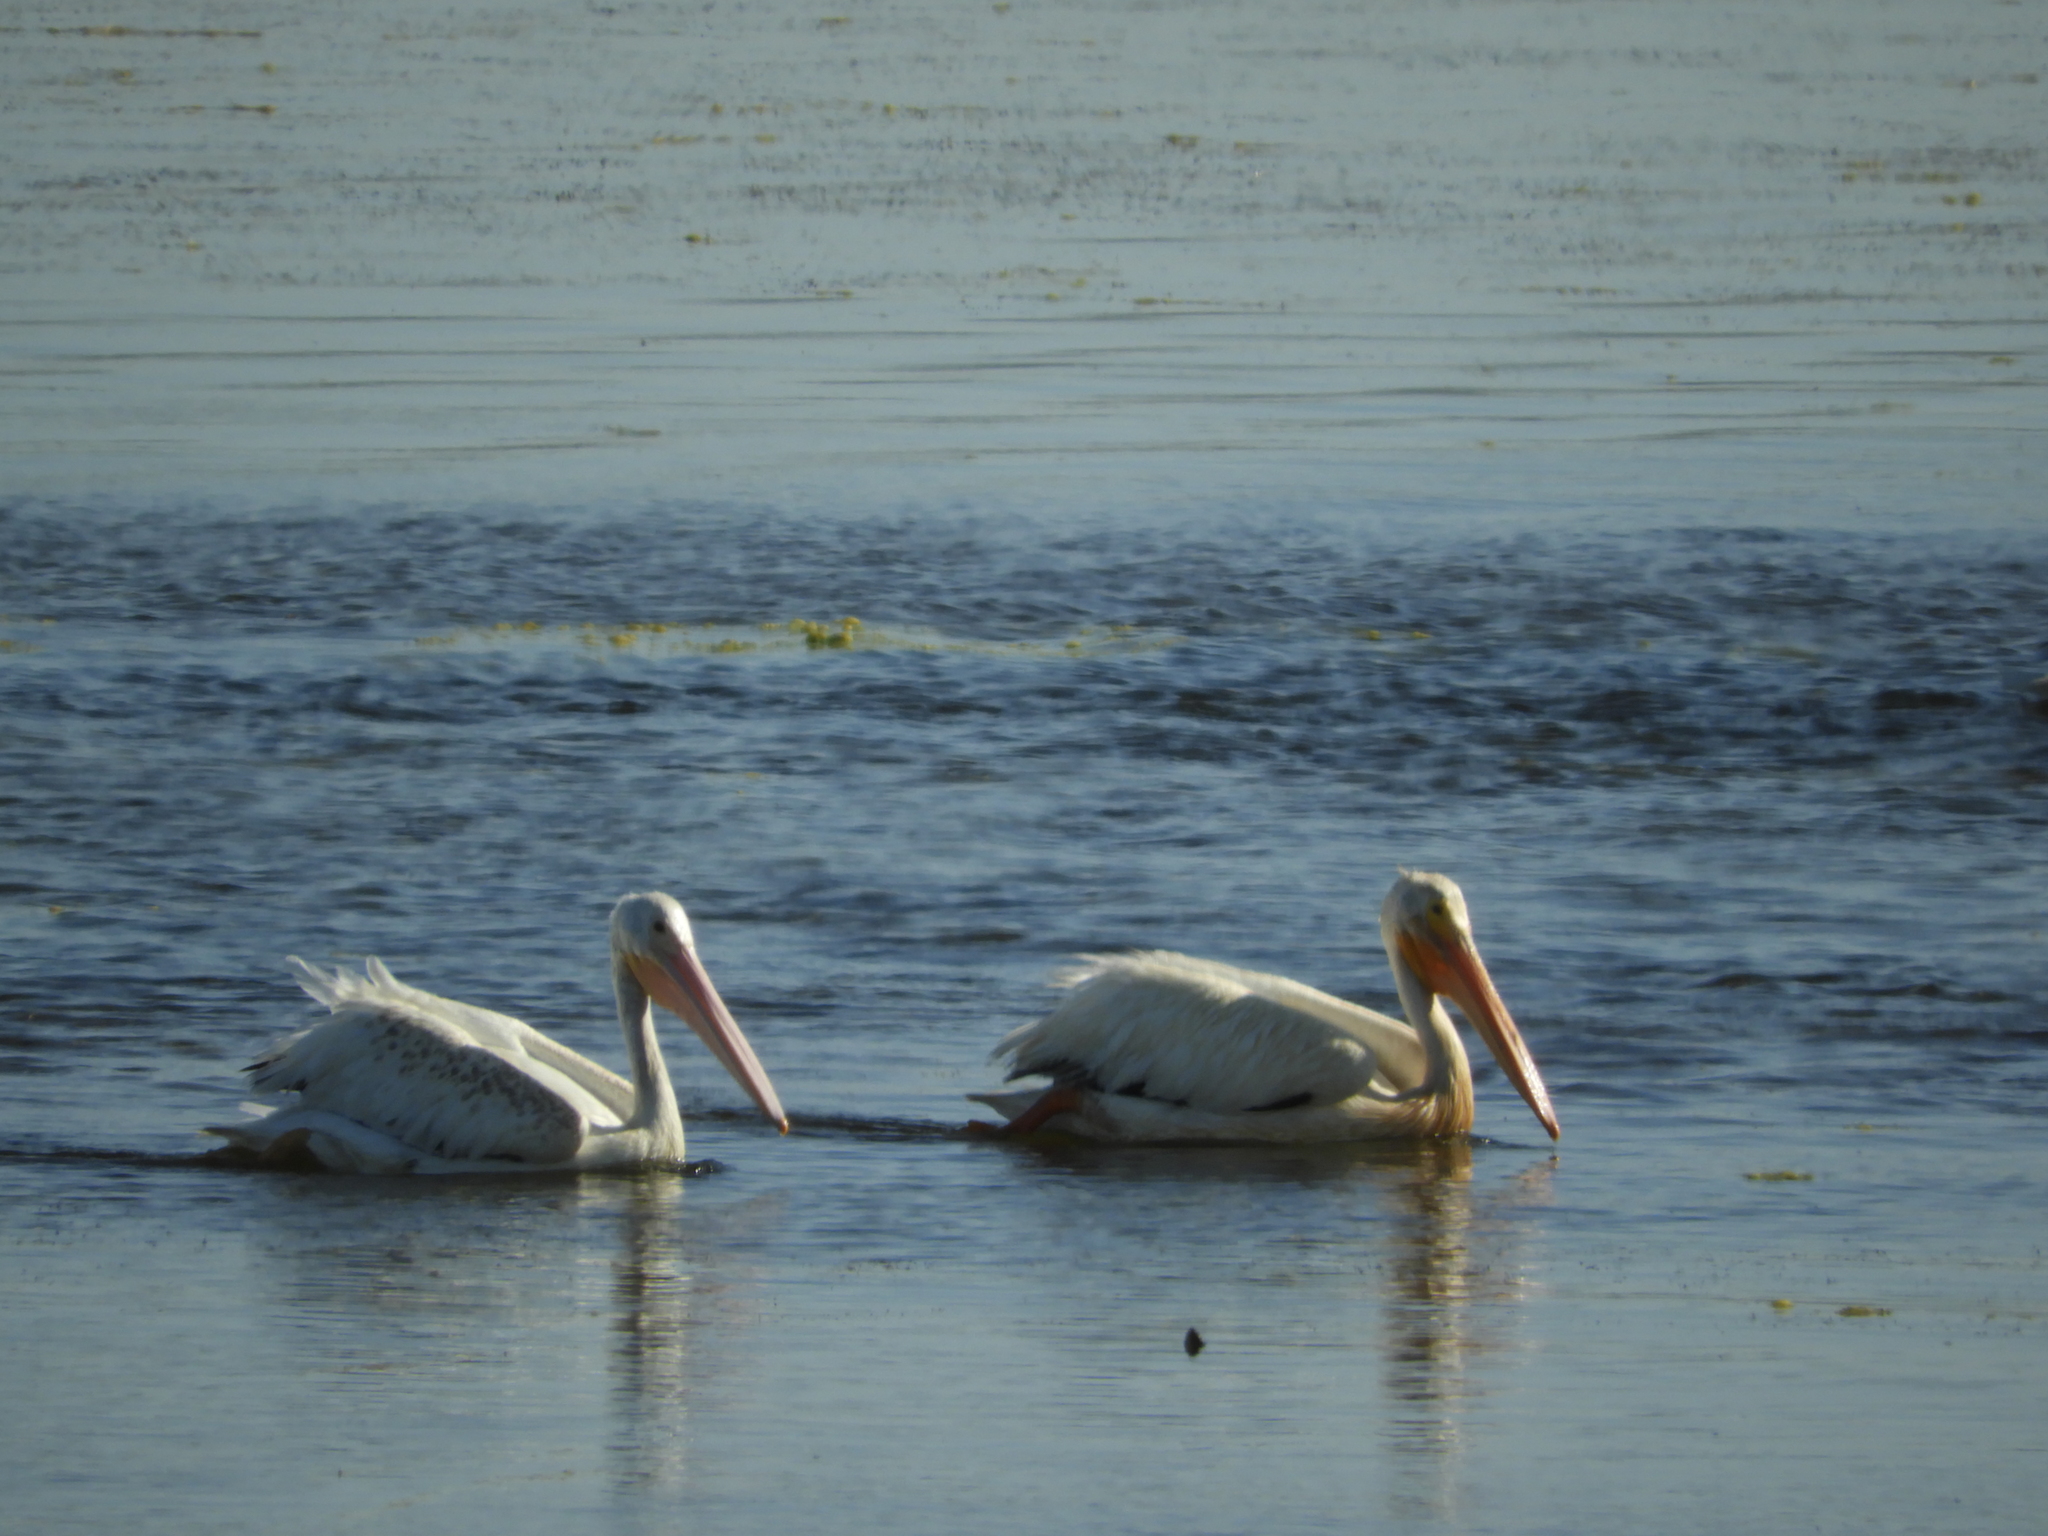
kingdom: Animalia
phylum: Chordata
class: Aves
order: Pelecaniformes
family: Pelecanidae
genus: Pelecanus
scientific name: Pelecanus erythrorhynchos
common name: American white pelican
